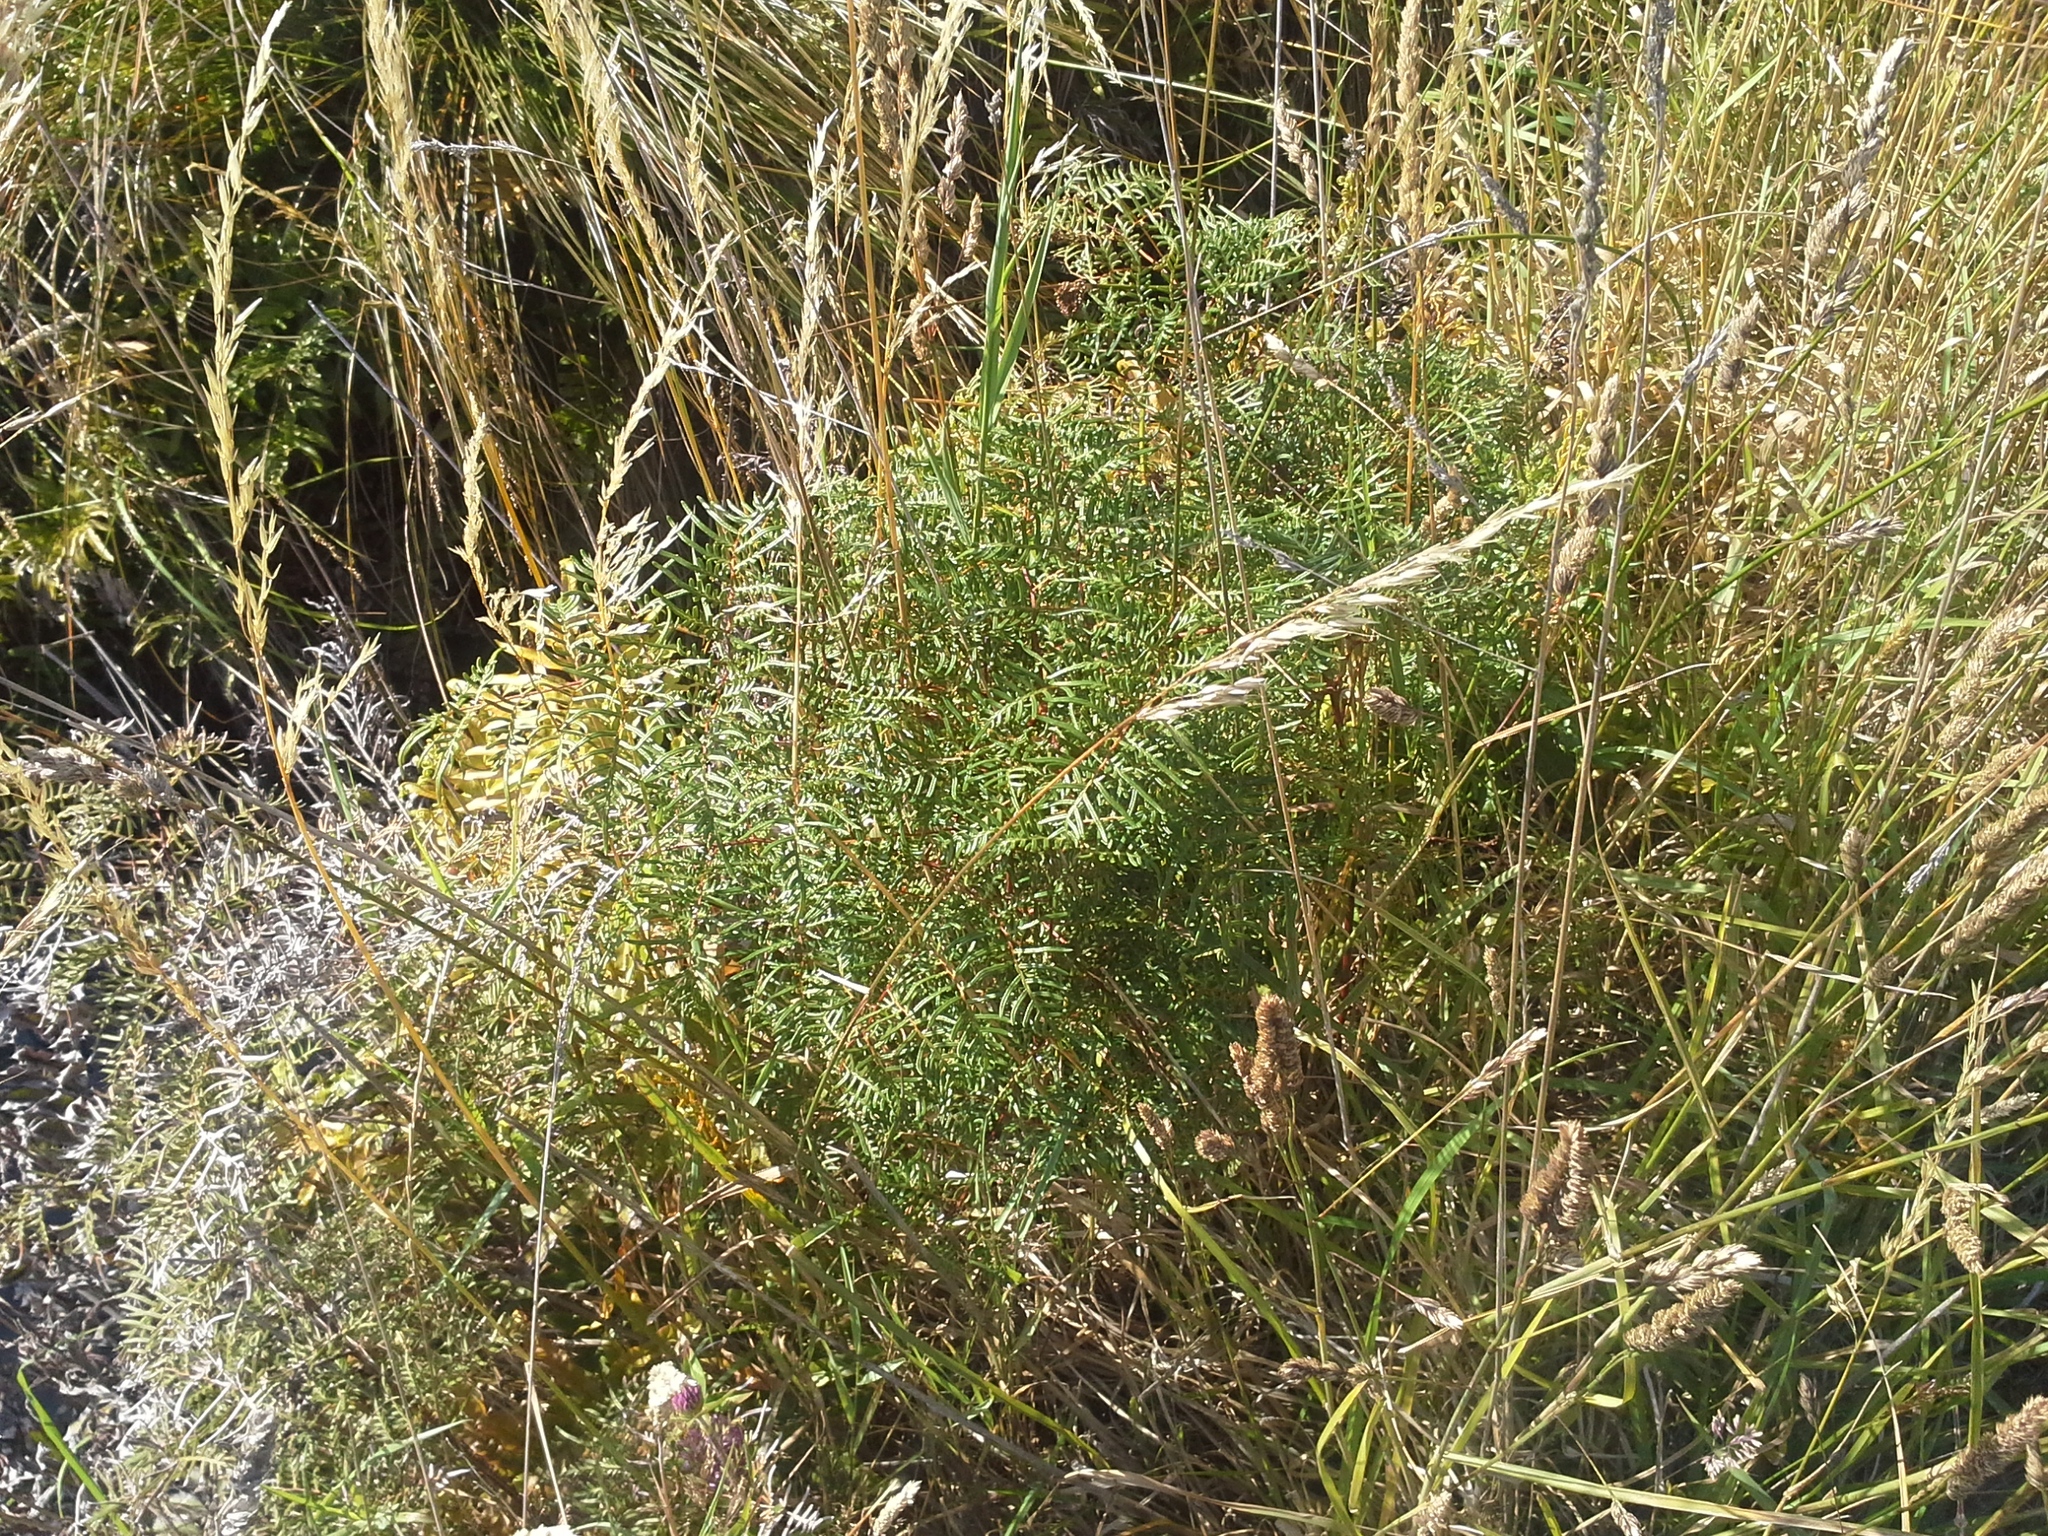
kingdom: Plantae
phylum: Tracheophyta
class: Polypodiopsida
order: Polypodiales
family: Dennstaedtiaceae
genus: Pteridium
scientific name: Pteridium esculentum
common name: Bracken fern
